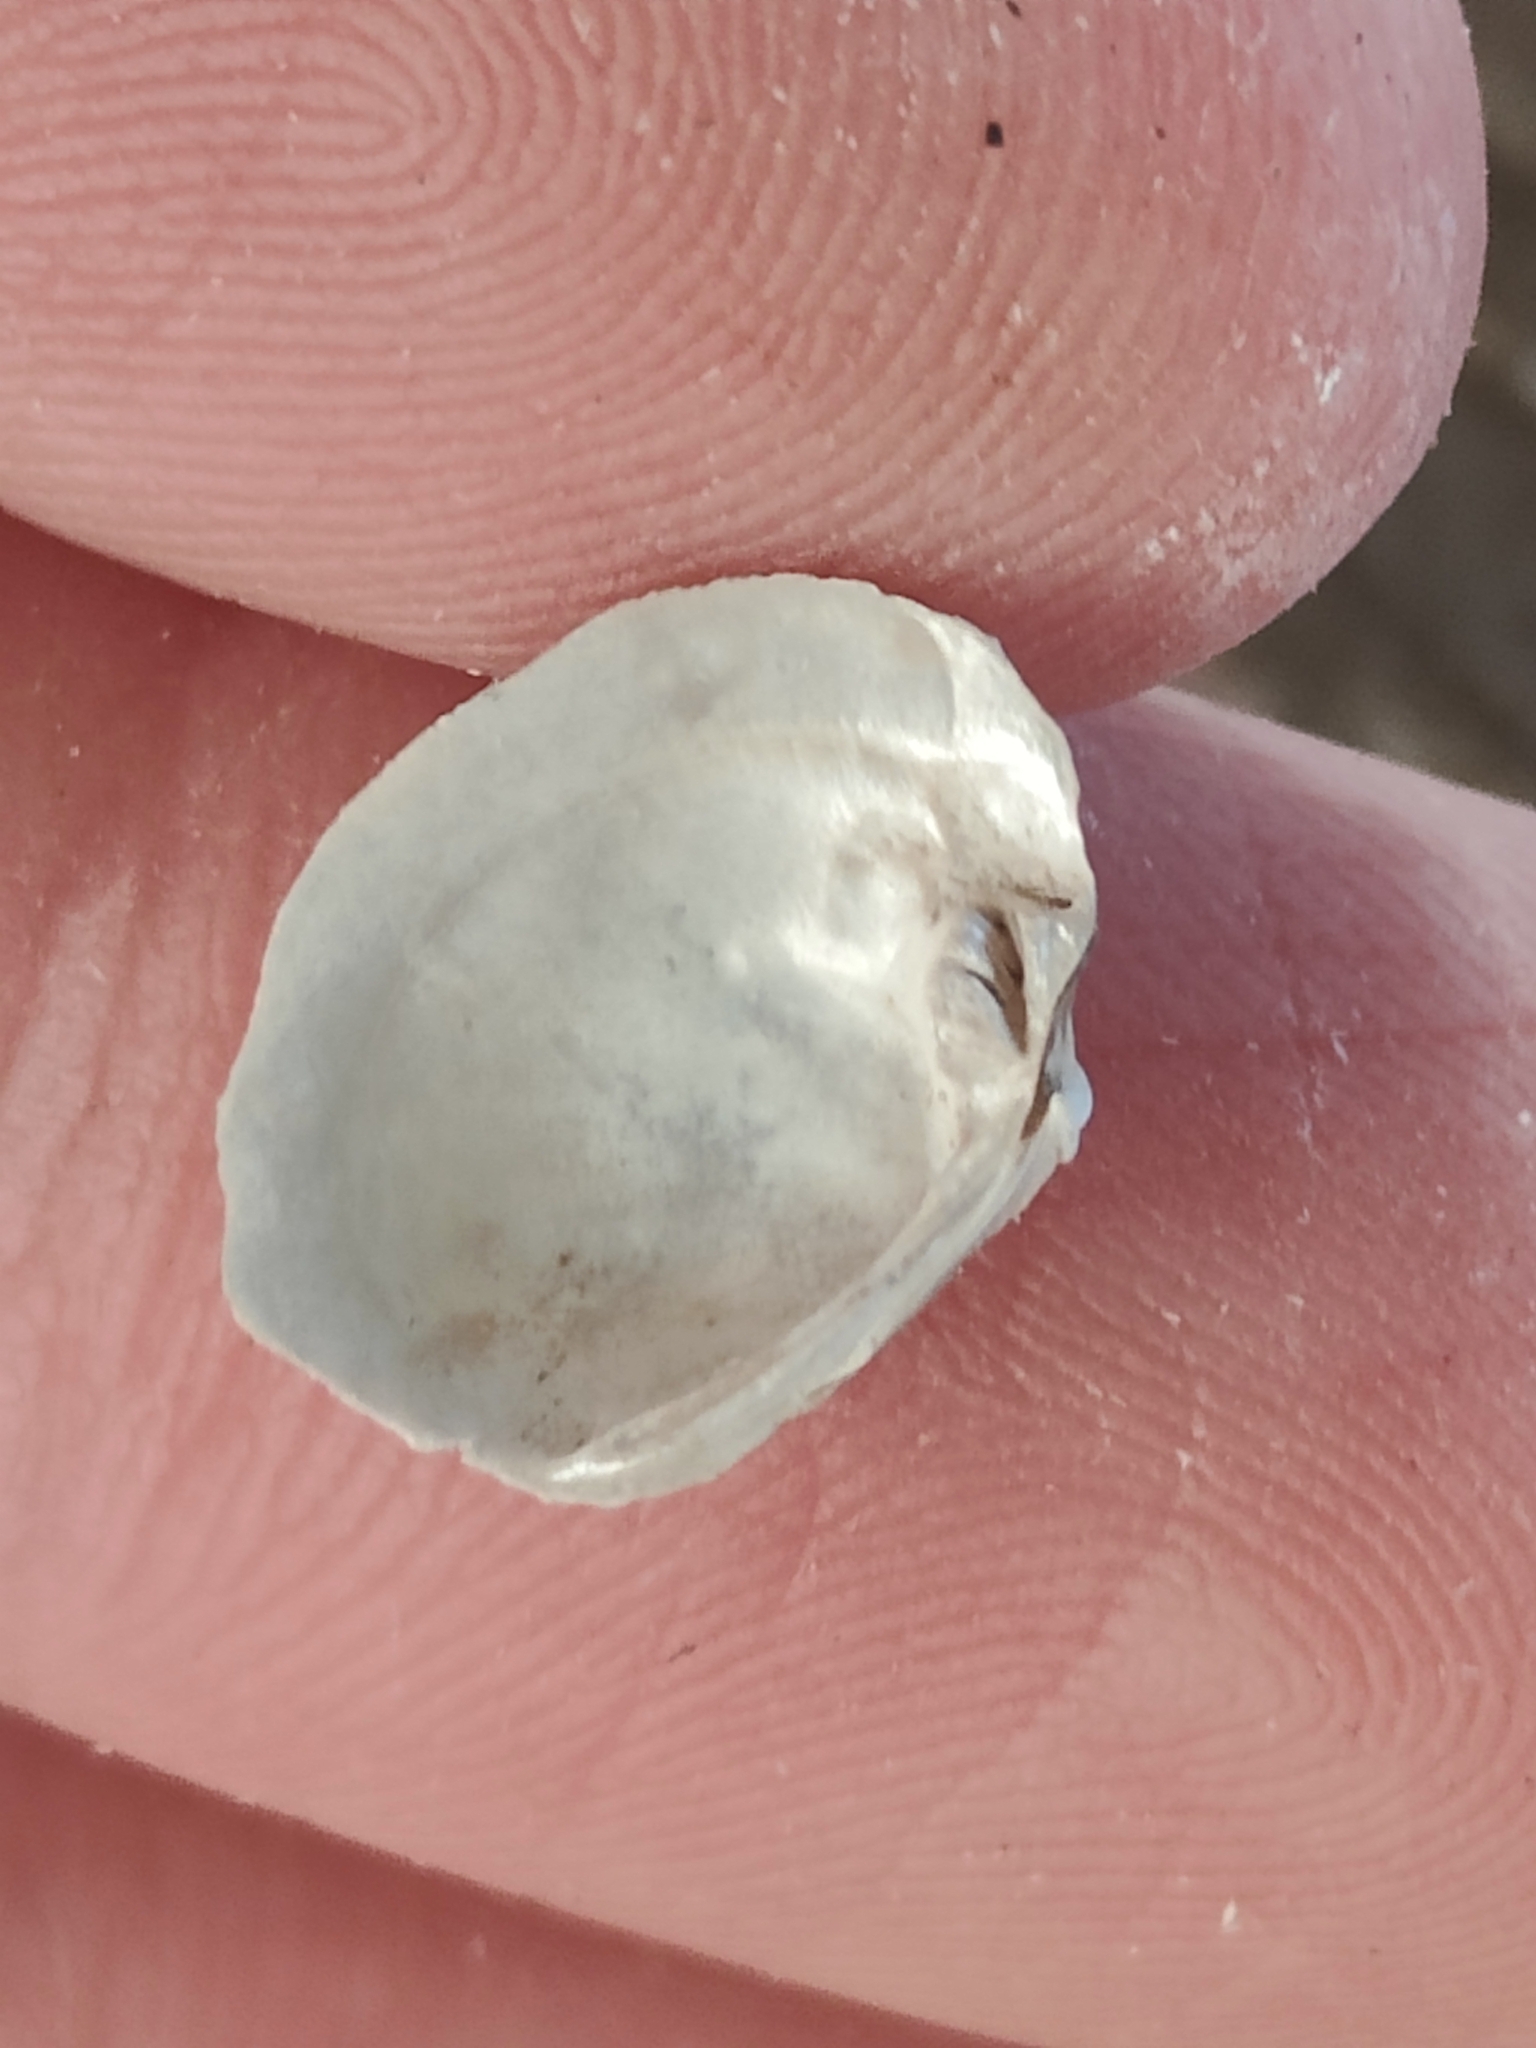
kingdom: Animalia
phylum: Mollusca
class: Bivalvia
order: Unionida
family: Unionidae
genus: Fusconaia
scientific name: Fusconaia flava
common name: Wabash pigtoe
